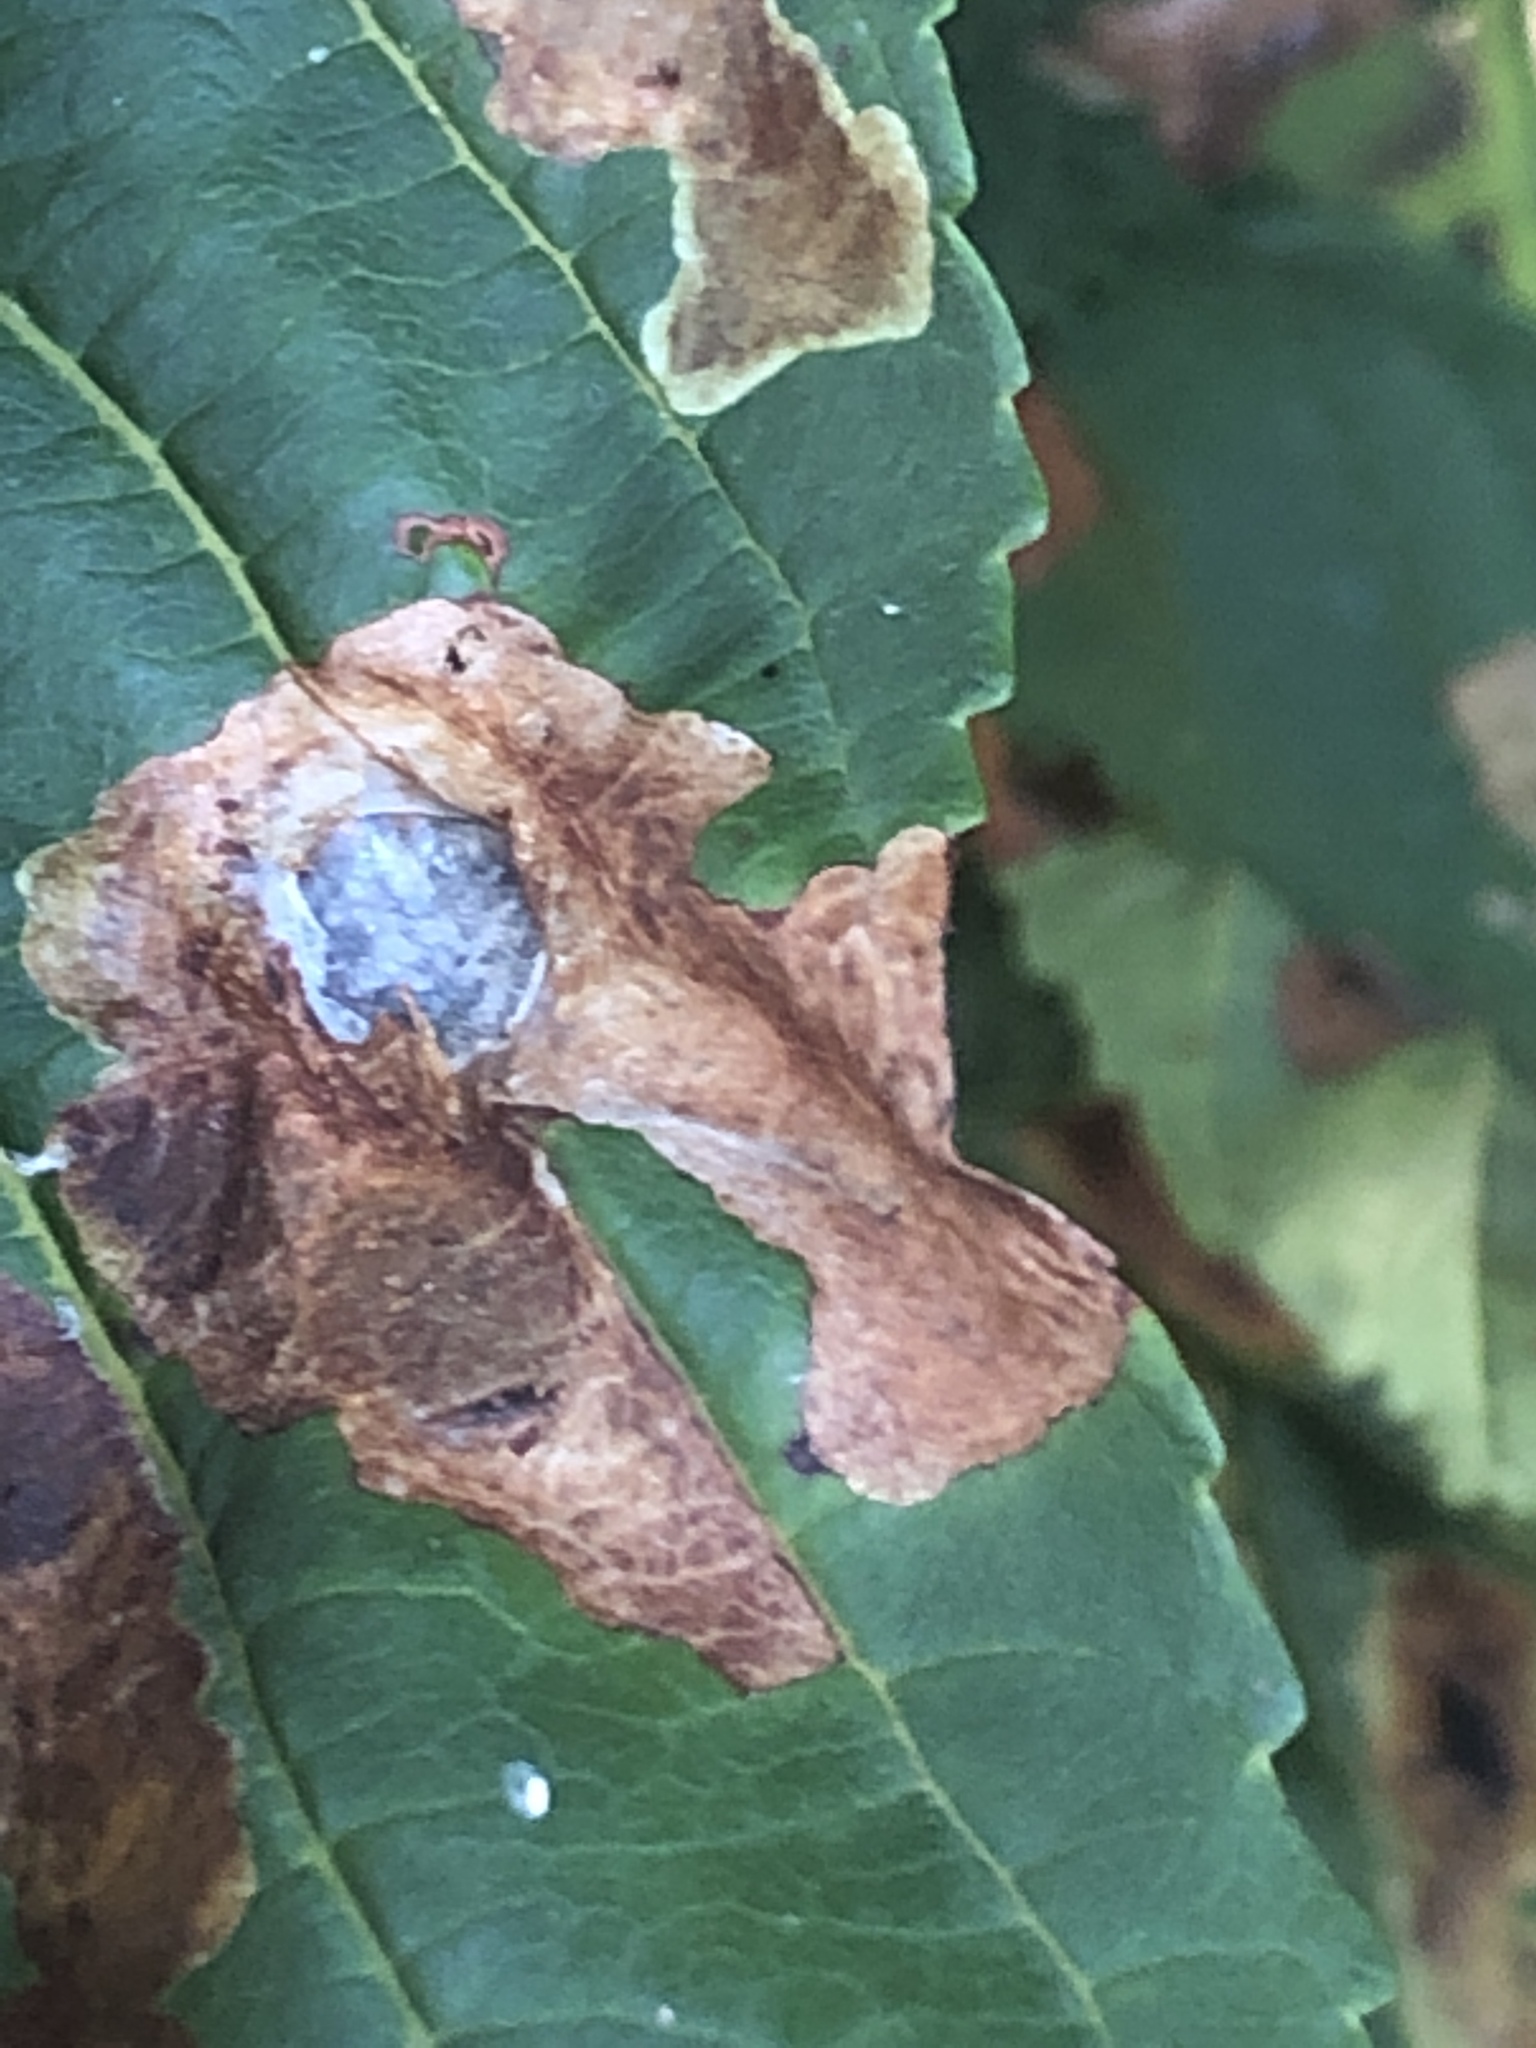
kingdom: Animalia
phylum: Arthropoda
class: Insecta
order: Lepidoptera
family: Gracillariidae
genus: Cameraria
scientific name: Cameraria ohridella
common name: Horse-chestnut leaf-miner
